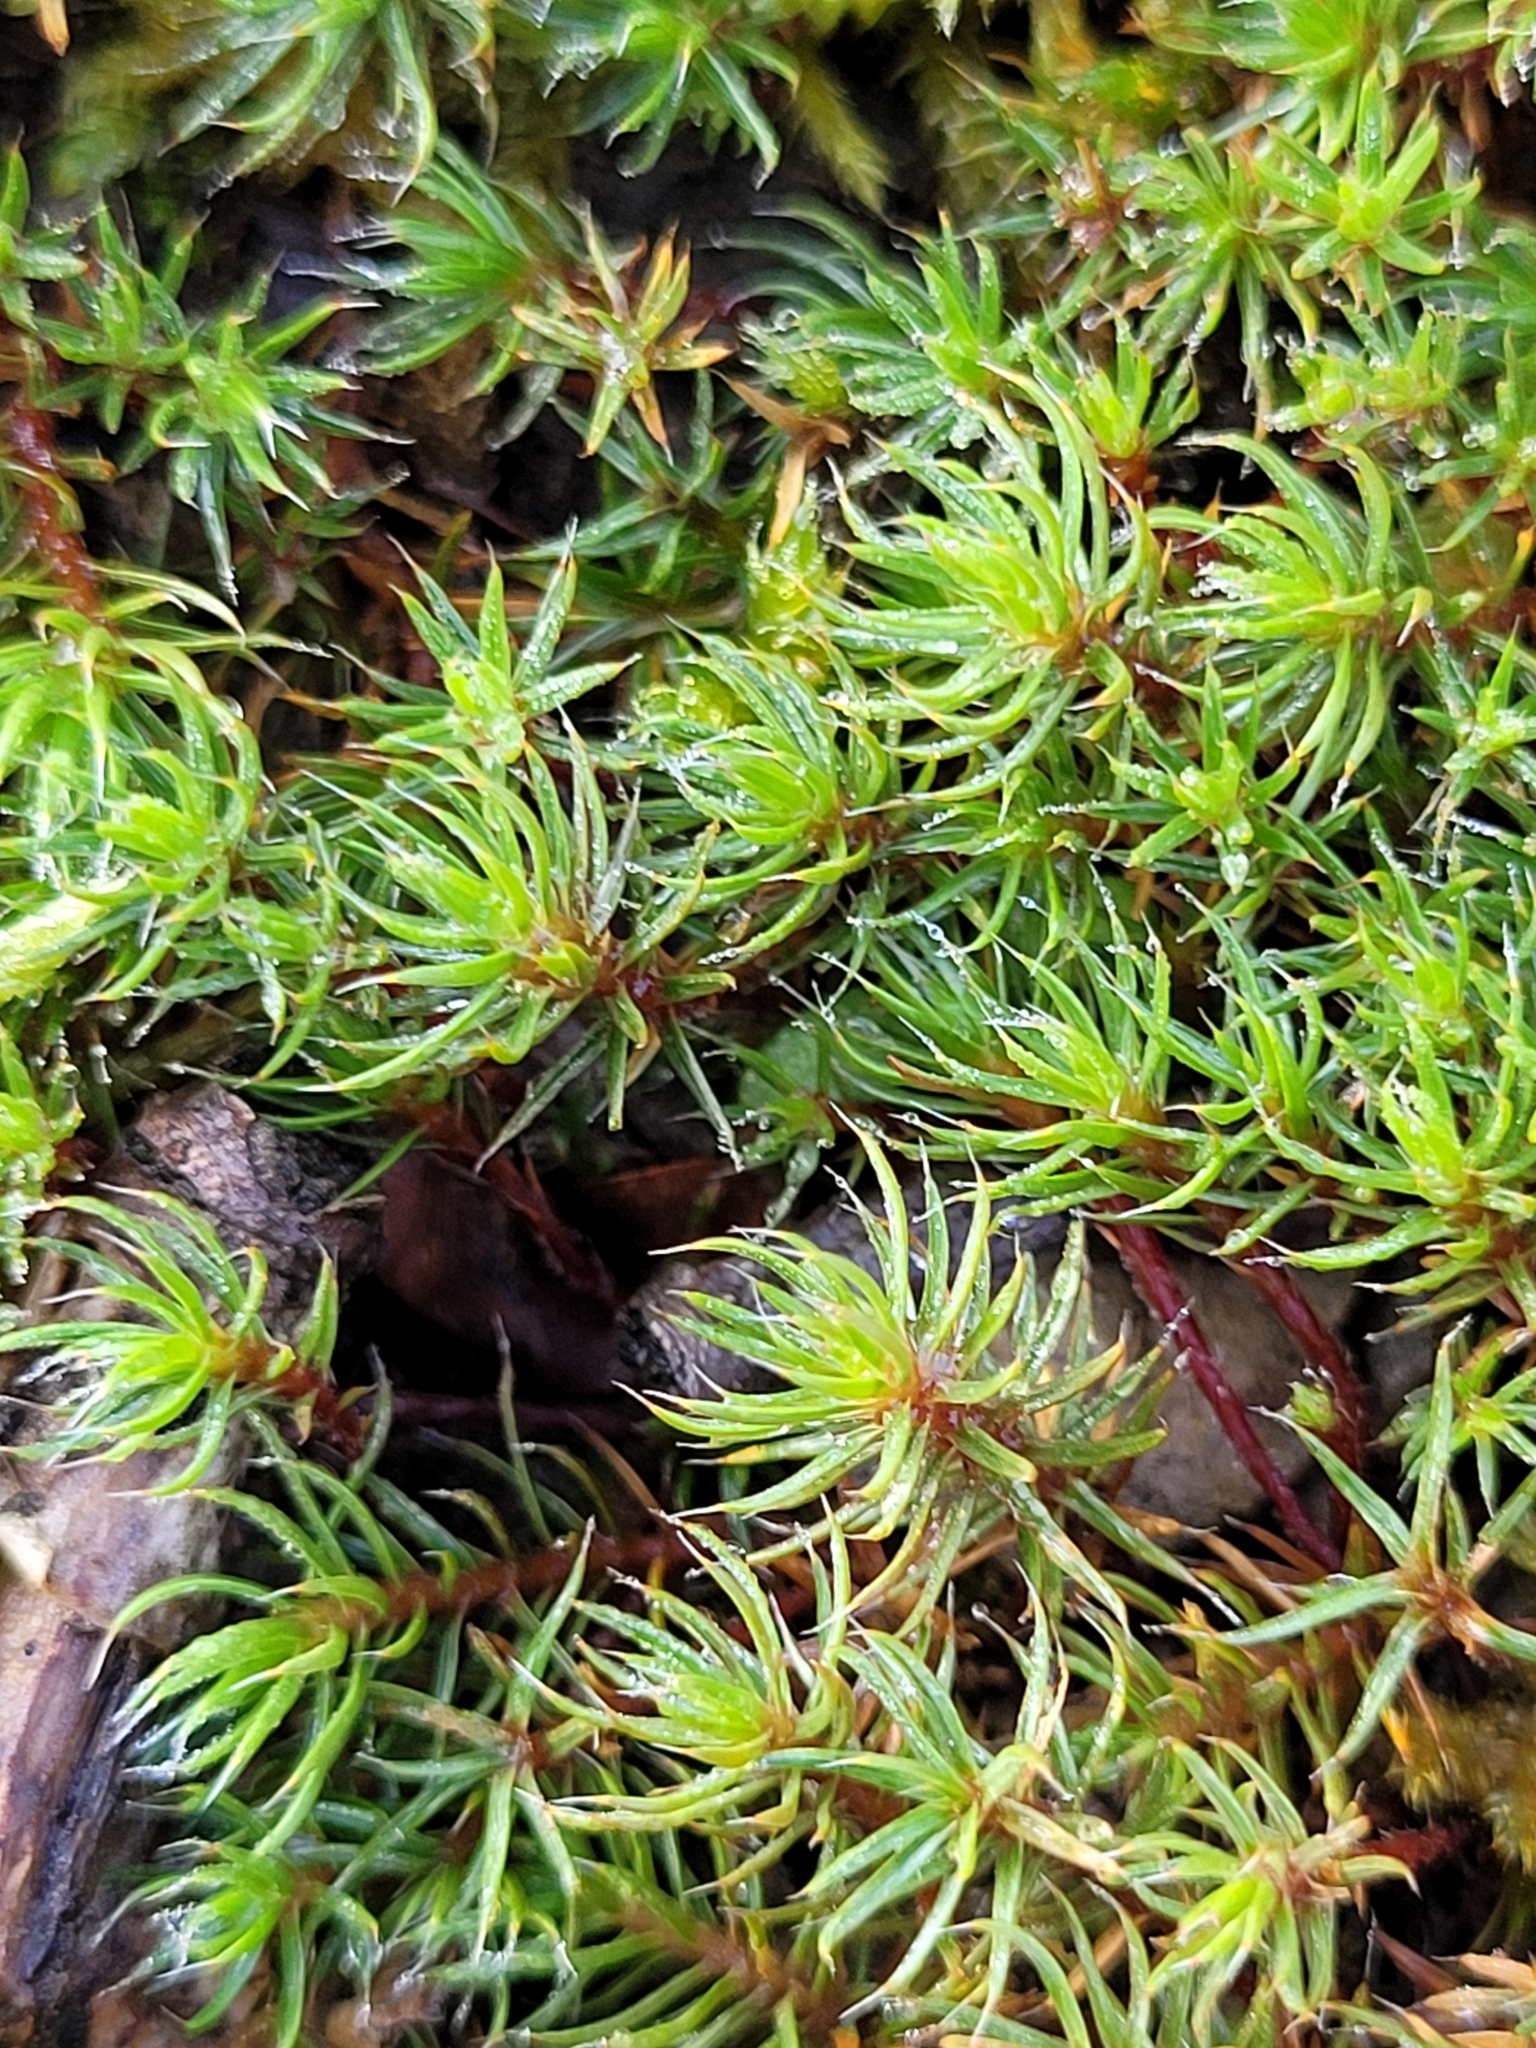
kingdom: Plantae
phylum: Bryophyta
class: Polytrichopsida
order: Polytrichales
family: Polytrichaceae
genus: Polytrichum
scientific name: Polytrichum piliferum
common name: Bristly haircap
